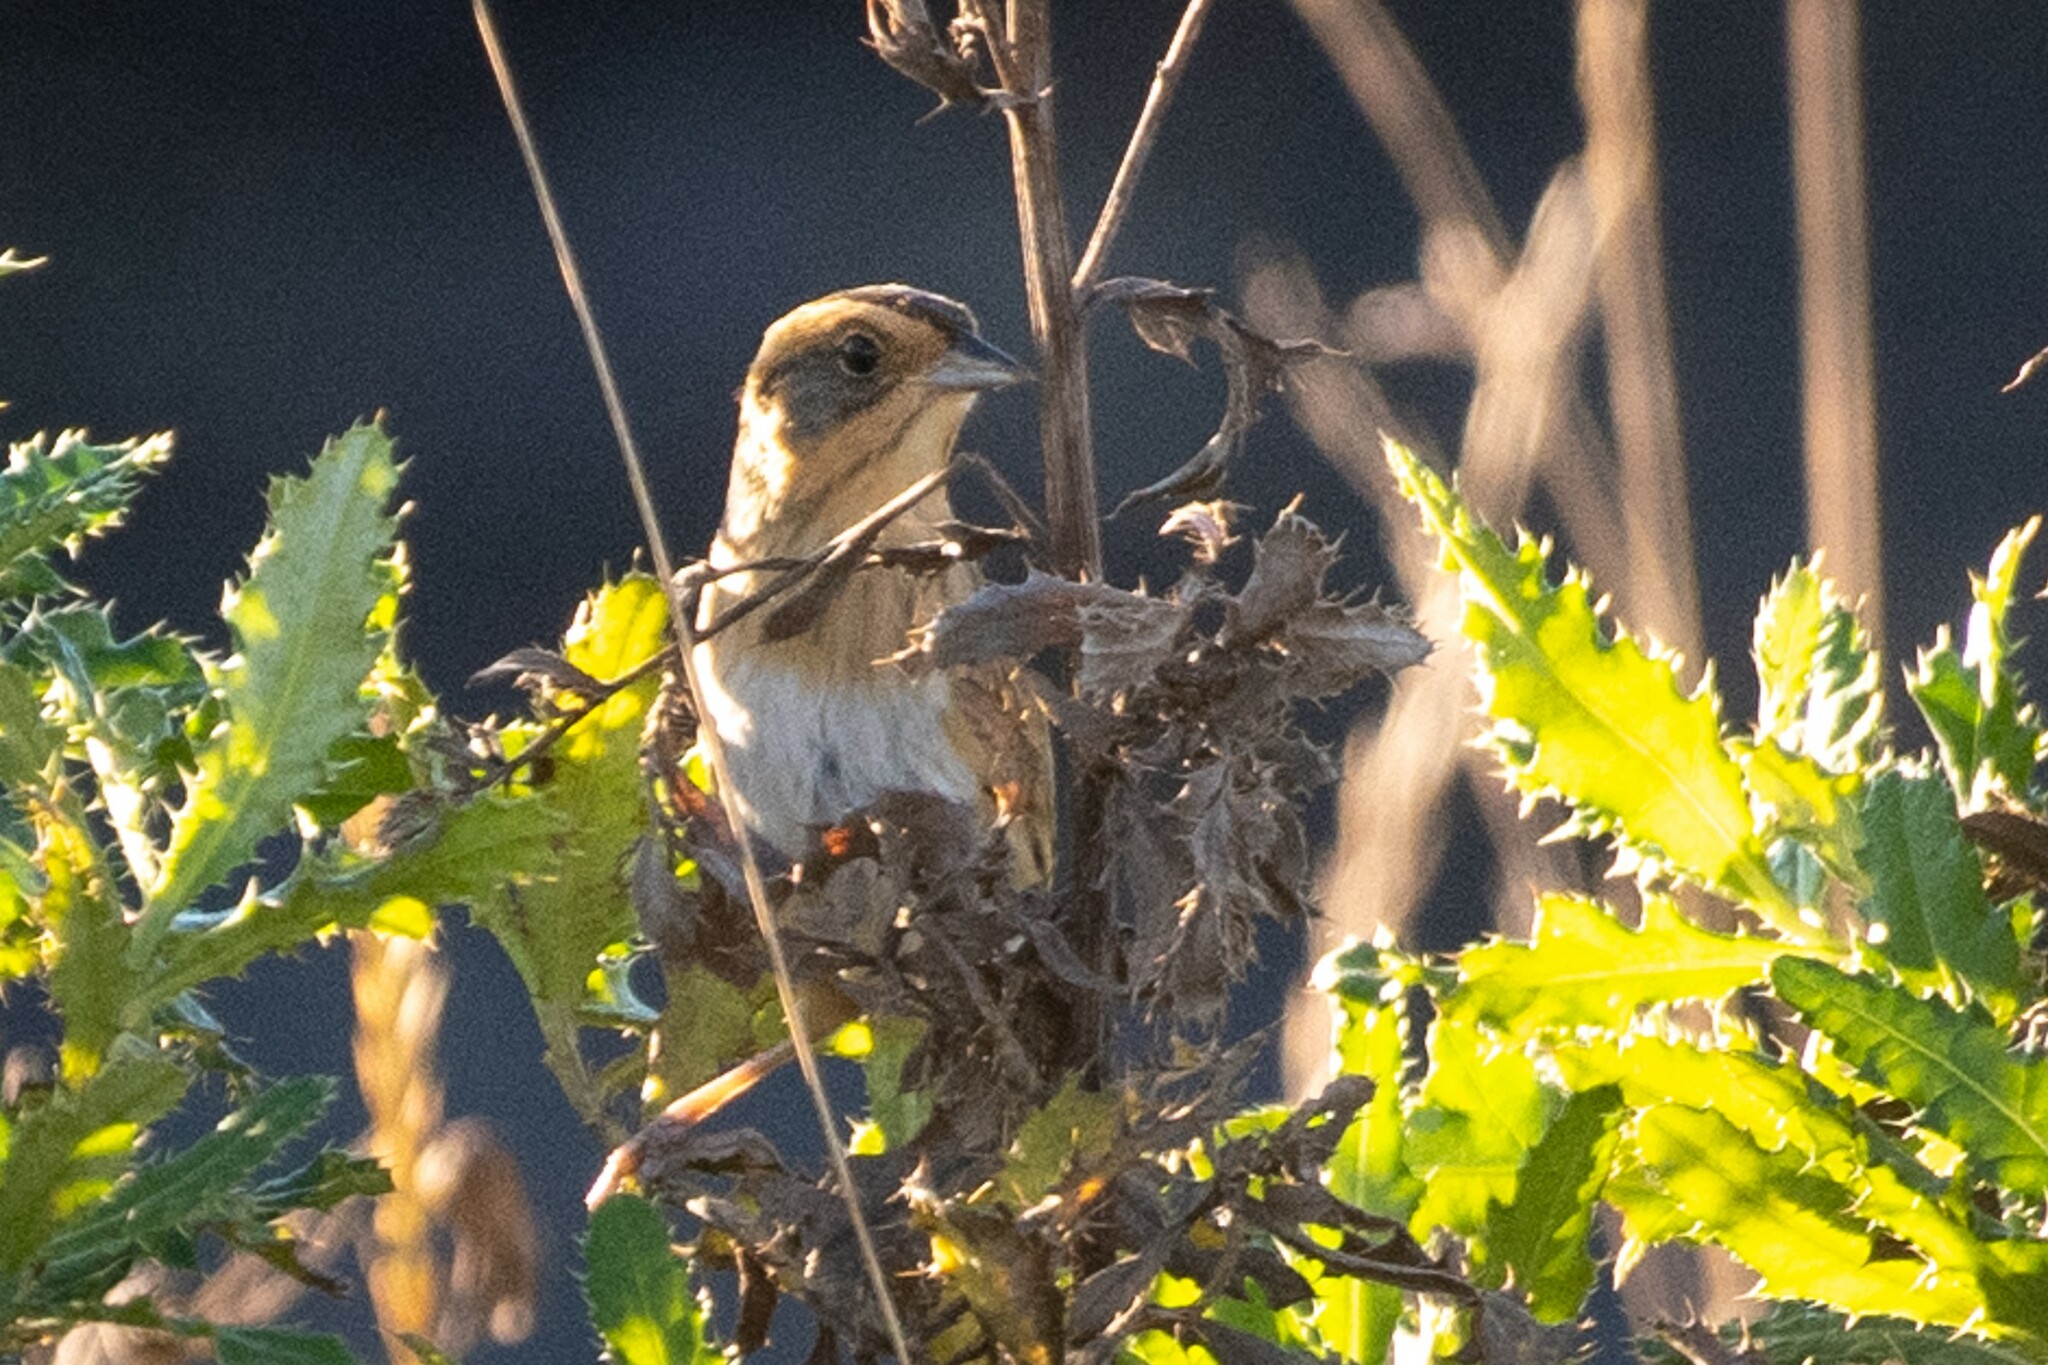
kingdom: Animalia
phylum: Chordata
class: Aves
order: Passeriformes
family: Passerellidae
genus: Ammospiza
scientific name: Ammospiza nelsoni
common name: Nelson's sparrow
